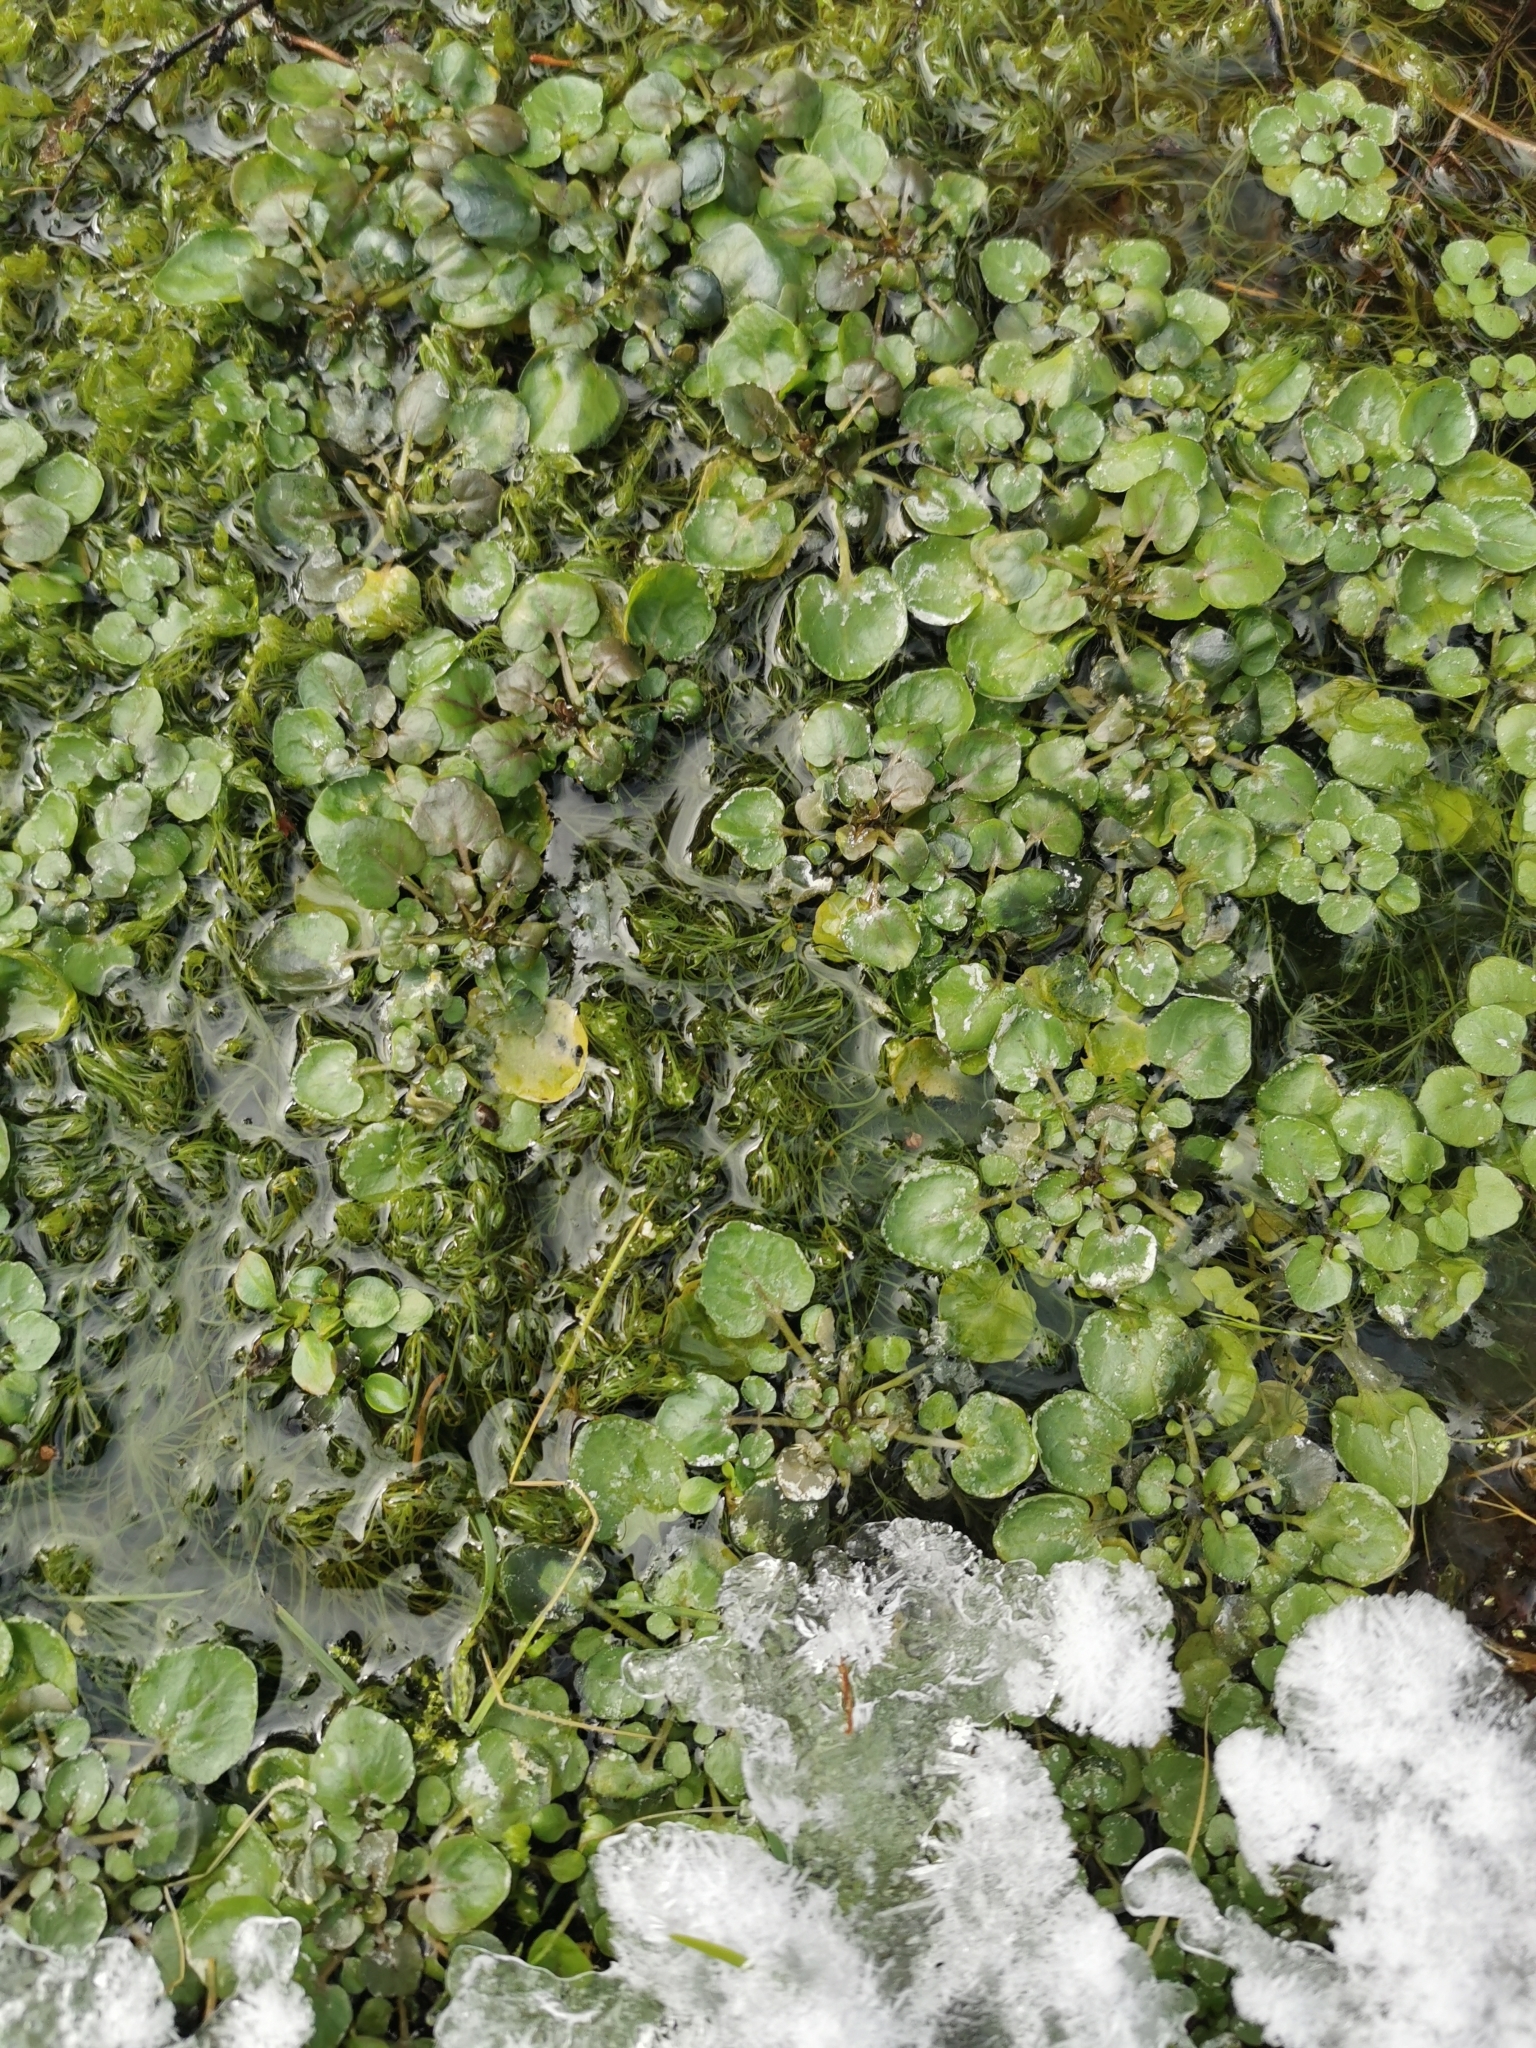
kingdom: Plantae
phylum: Tracheophyta
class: Magnoliopsida
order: Brassicales
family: Brassicaceae
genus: Nasturtium
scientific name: Nasturtium officinale
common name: Watercress
